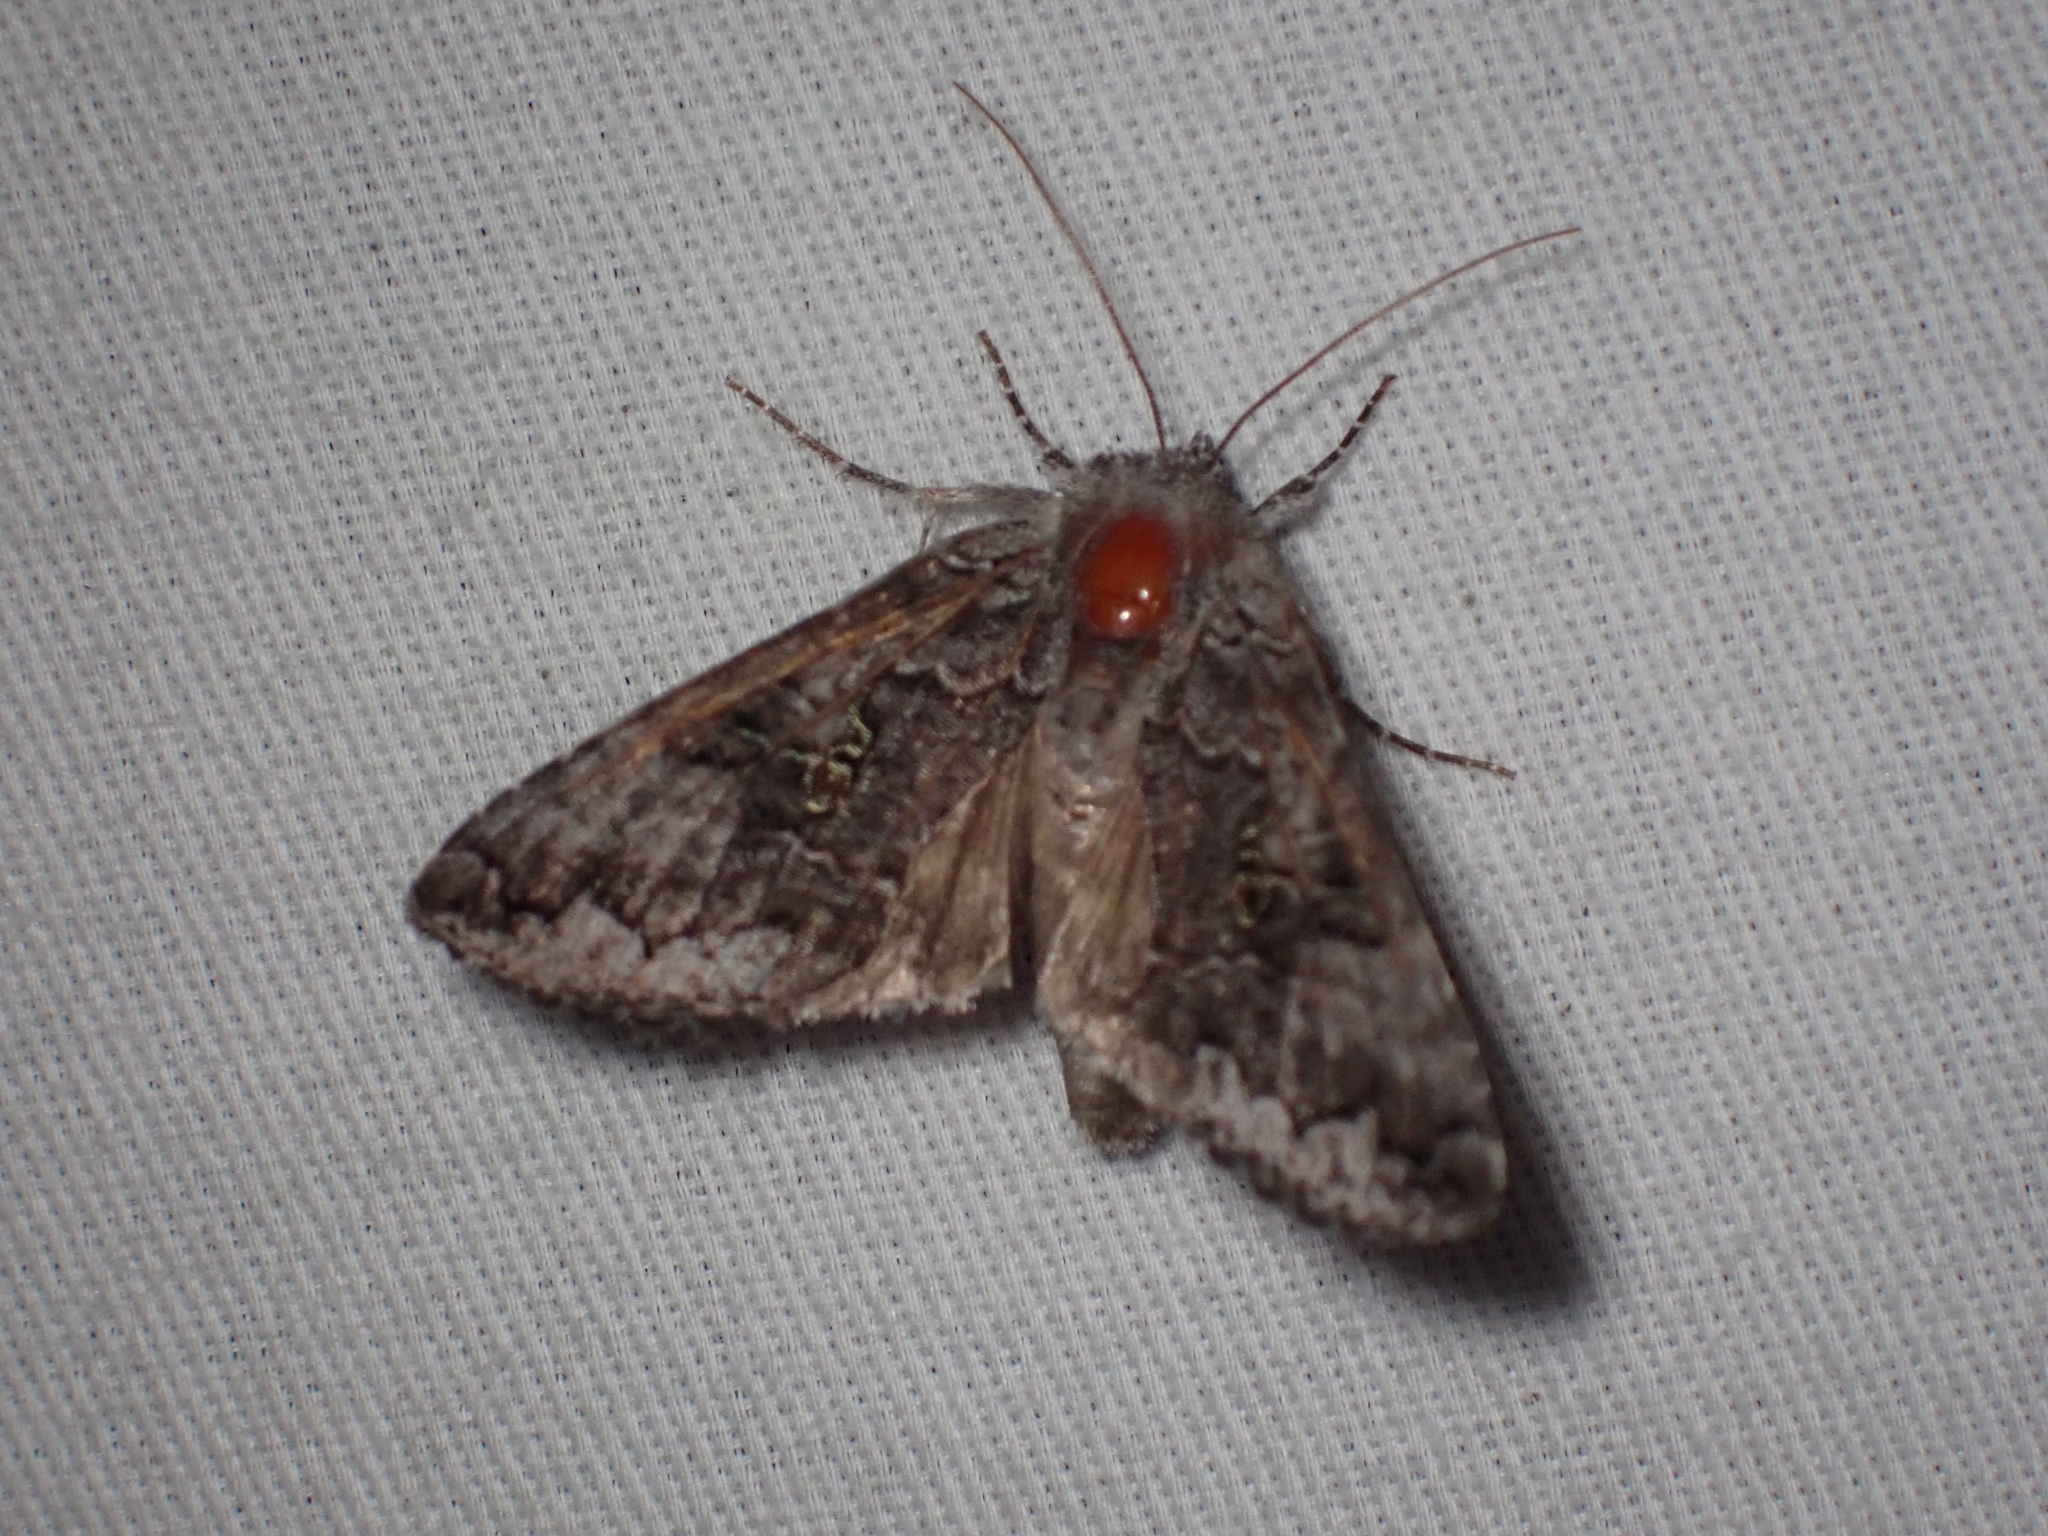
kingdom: Animalia
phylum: Arthropoda
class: Insecta
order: Lepidoptera
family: Noctuidae
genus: Syngrapha
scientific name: Syngrapha viridisigma
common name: Spruce false looper moth
